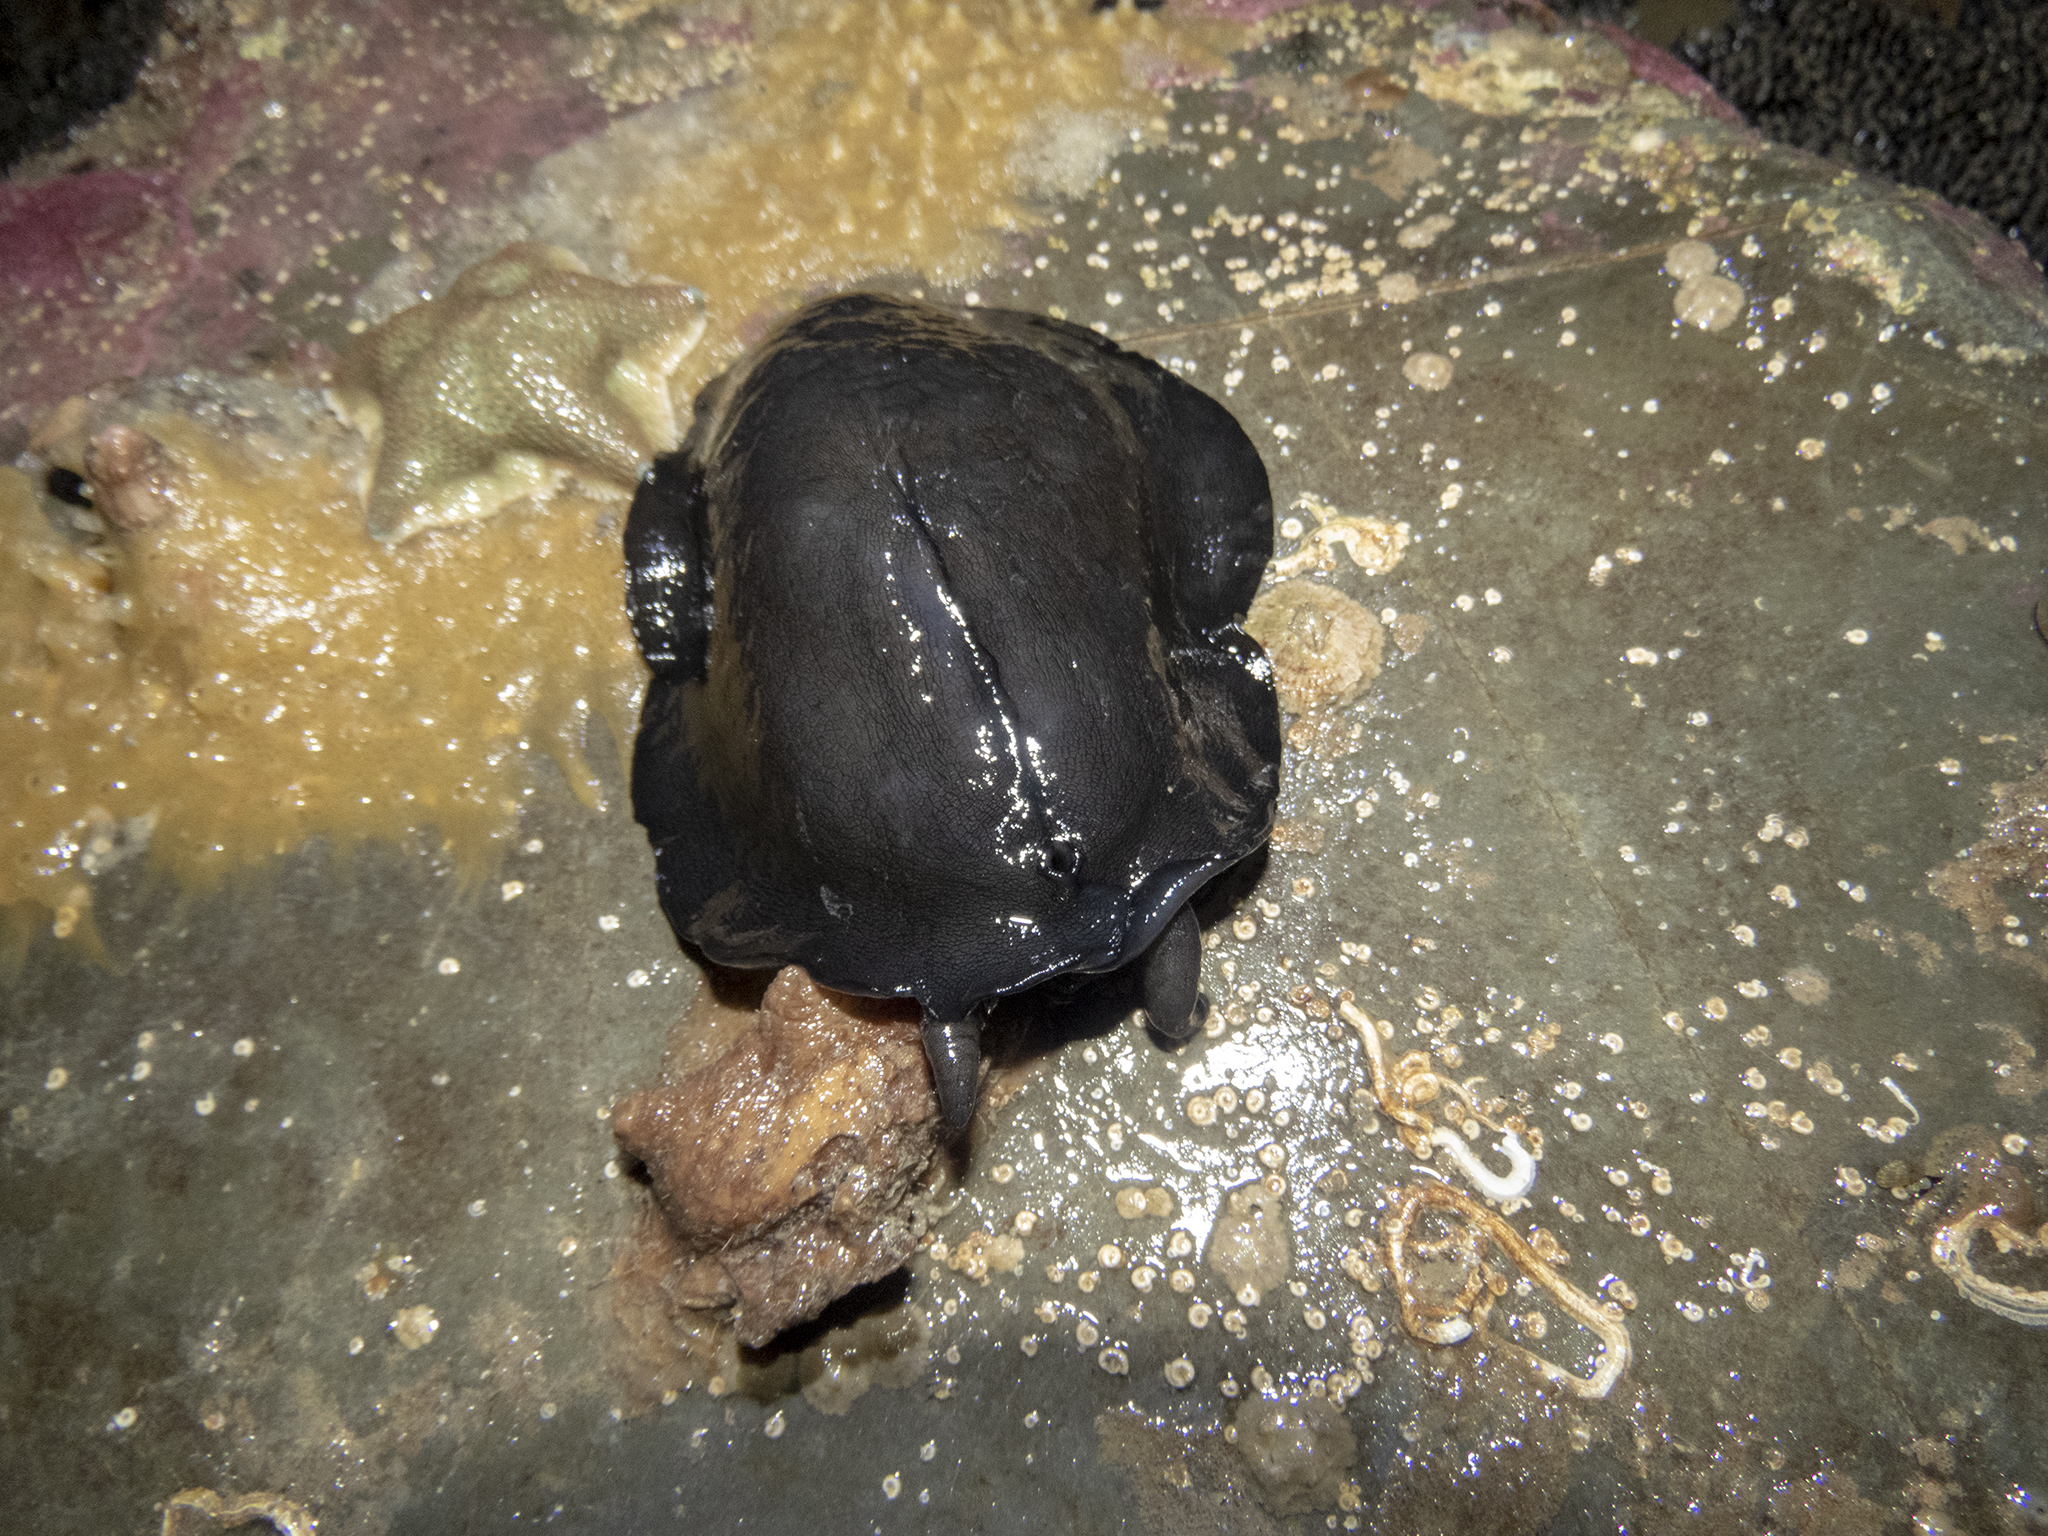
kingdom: Animalia
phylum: Mollusca
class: Gastropoda
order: Lepetellida
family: Fissurellidae
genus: Scutus
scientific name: Scutus breviculus
